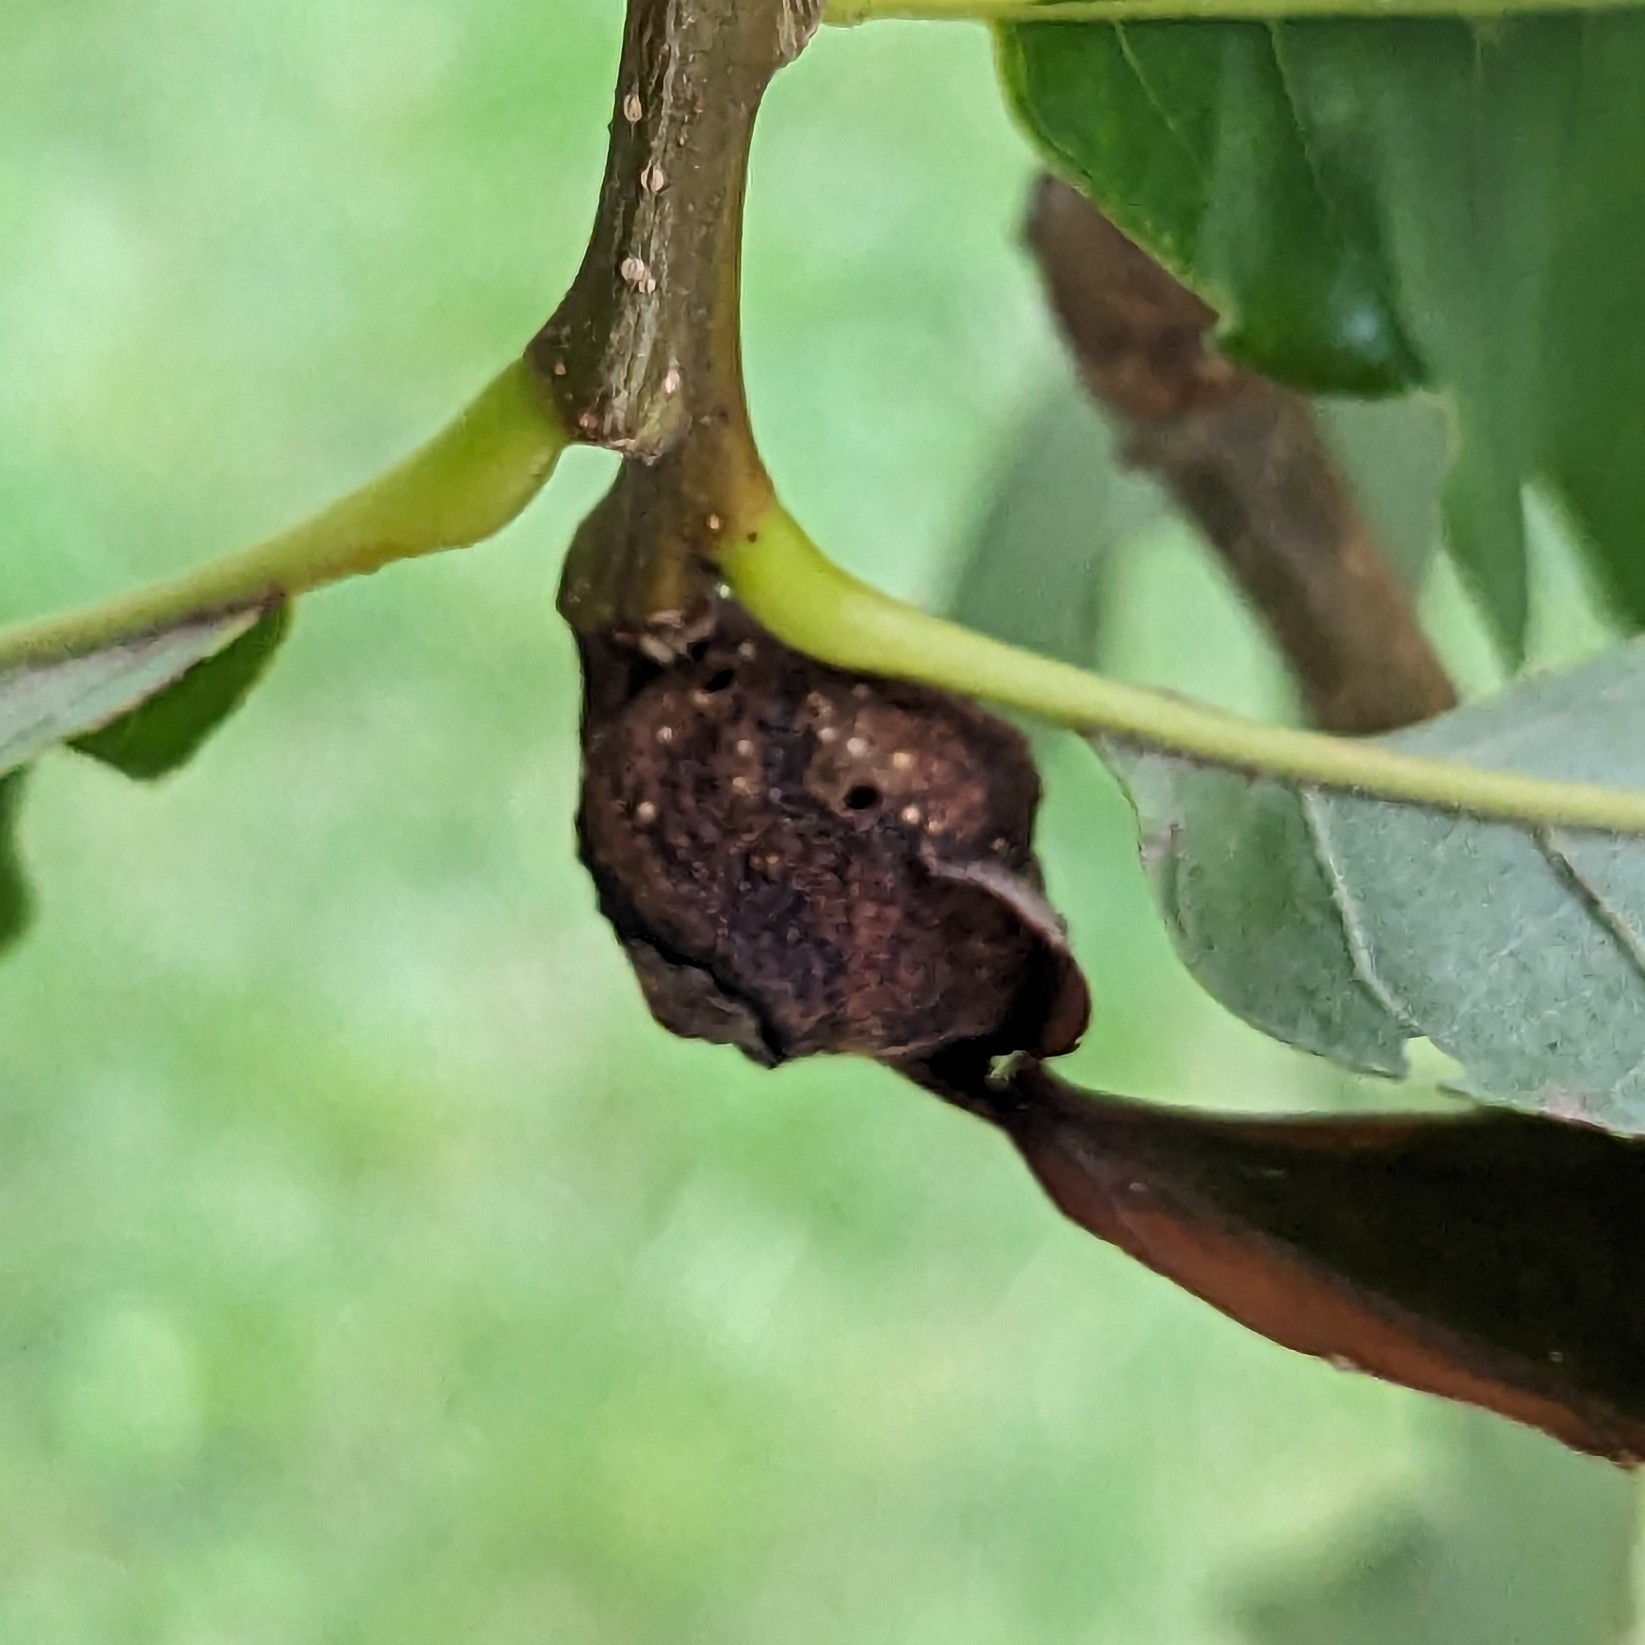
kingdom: Animalia
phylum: Arthropoda
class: Insecta
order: Hymenoptera
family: Cynipidae
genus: Andricus
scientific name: Andricus
